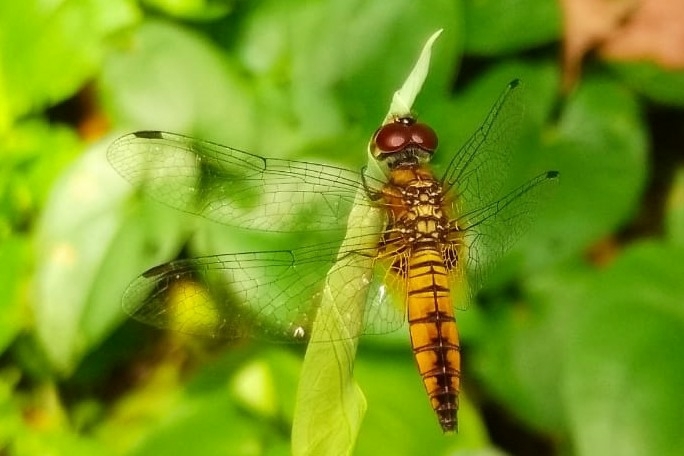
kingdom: Animalia
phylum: Arthropoda
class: Insecta
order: Odonata
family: Libellulidae
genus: Aethriamanta
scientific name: Aethriamanta brevipennis
